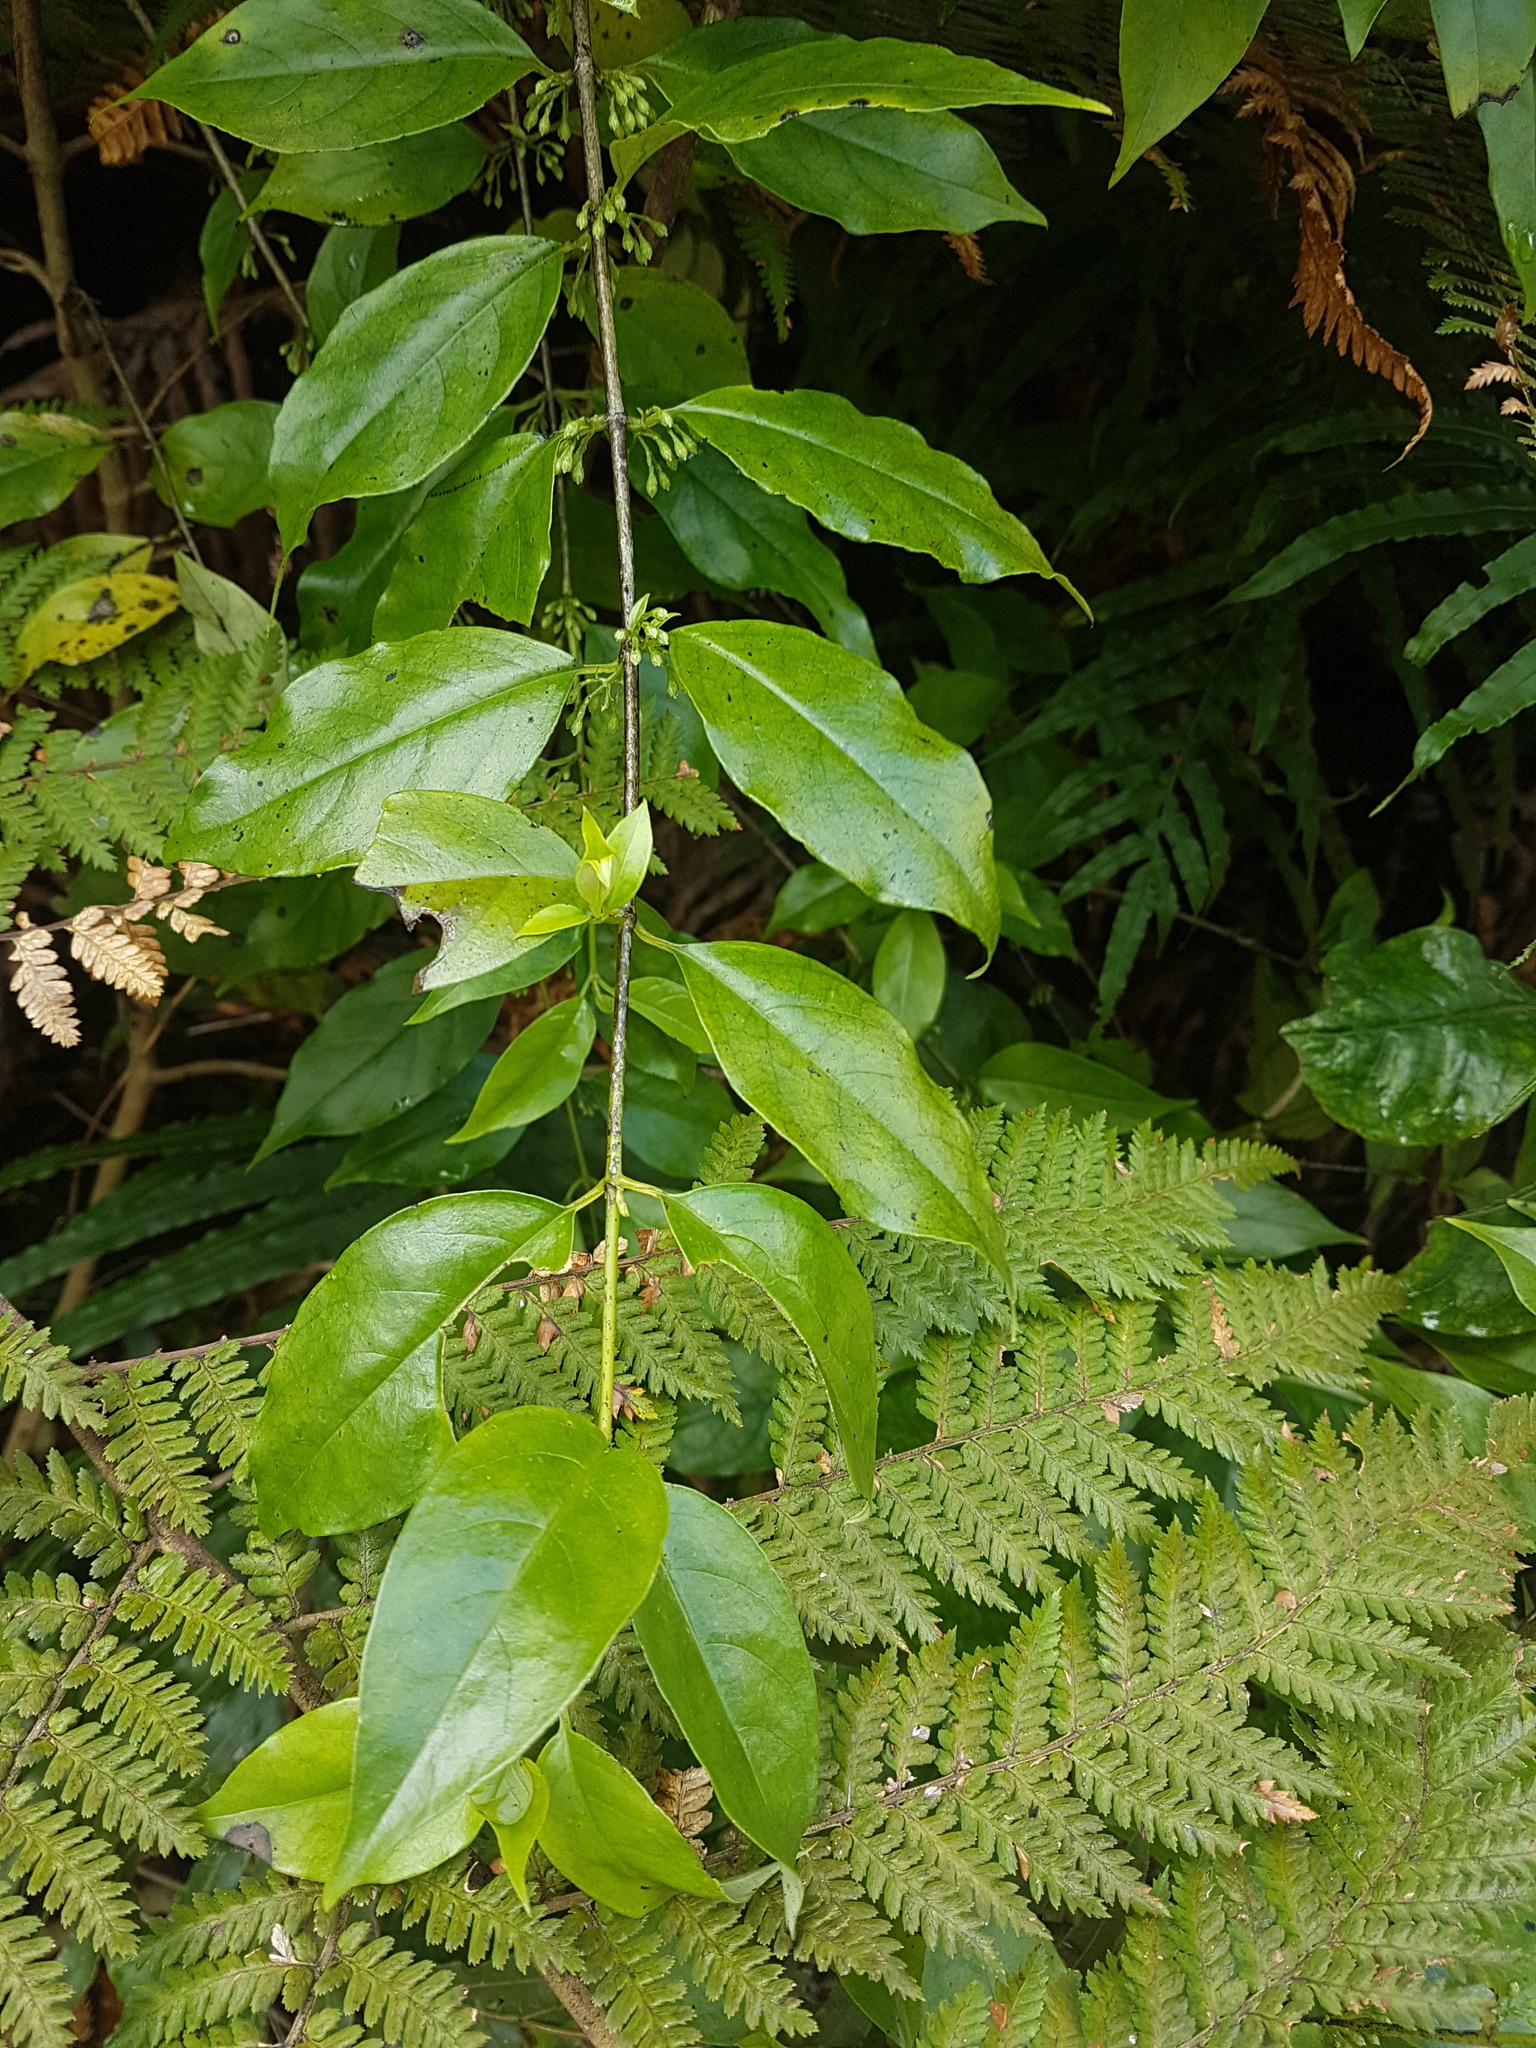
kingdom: Plantae
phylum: Tracheophyta
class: Magnoliopsida
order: Gentianales
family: Loganiaceae
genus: Geniostoma
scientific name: Geniostoma ligustrifolium
